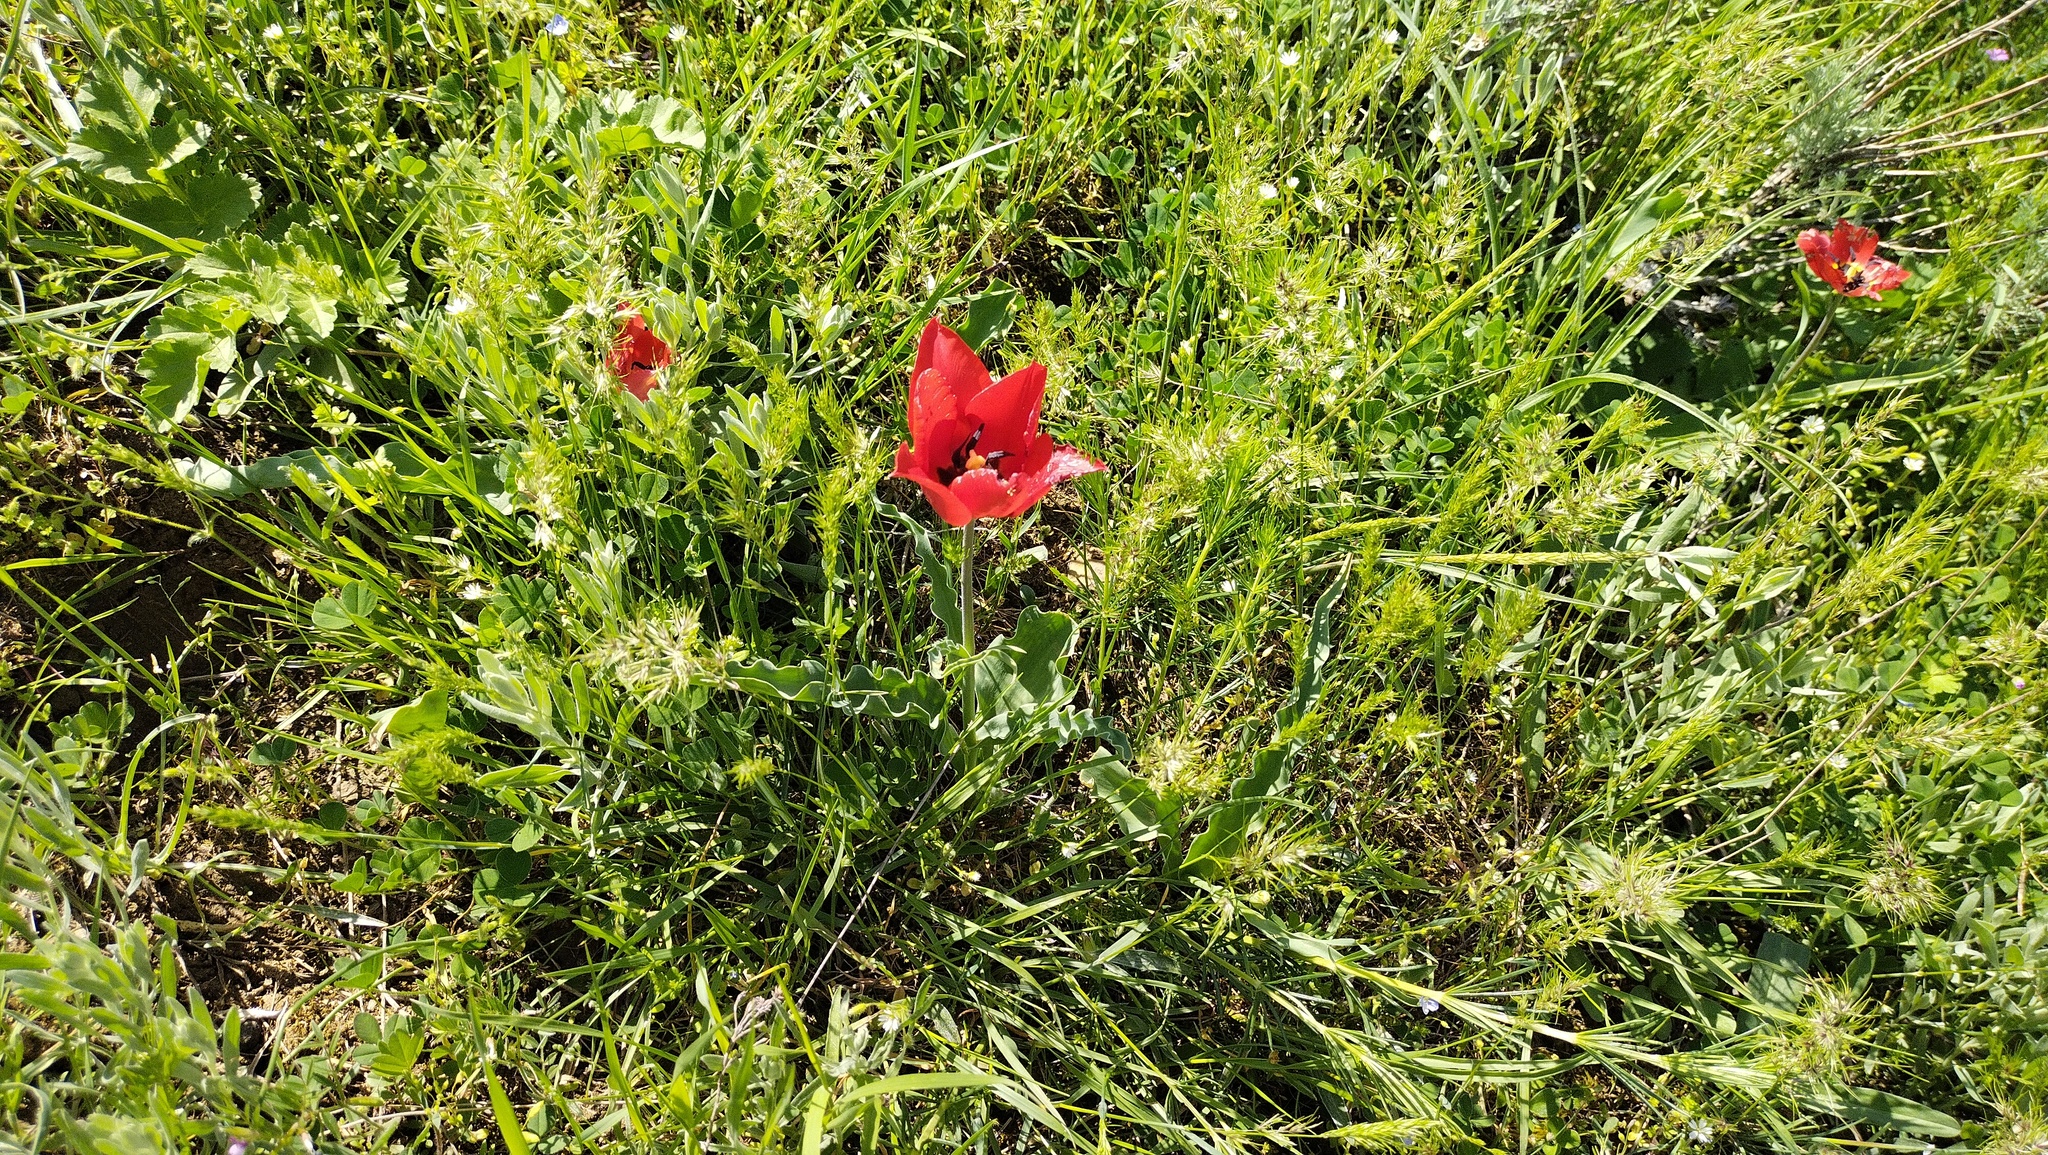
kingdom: Plantae
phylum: Tracheophyta
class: Liliopsida
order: Liliales
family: Liliaceae
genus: Tulipa
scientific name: Tulipa suaveolens
